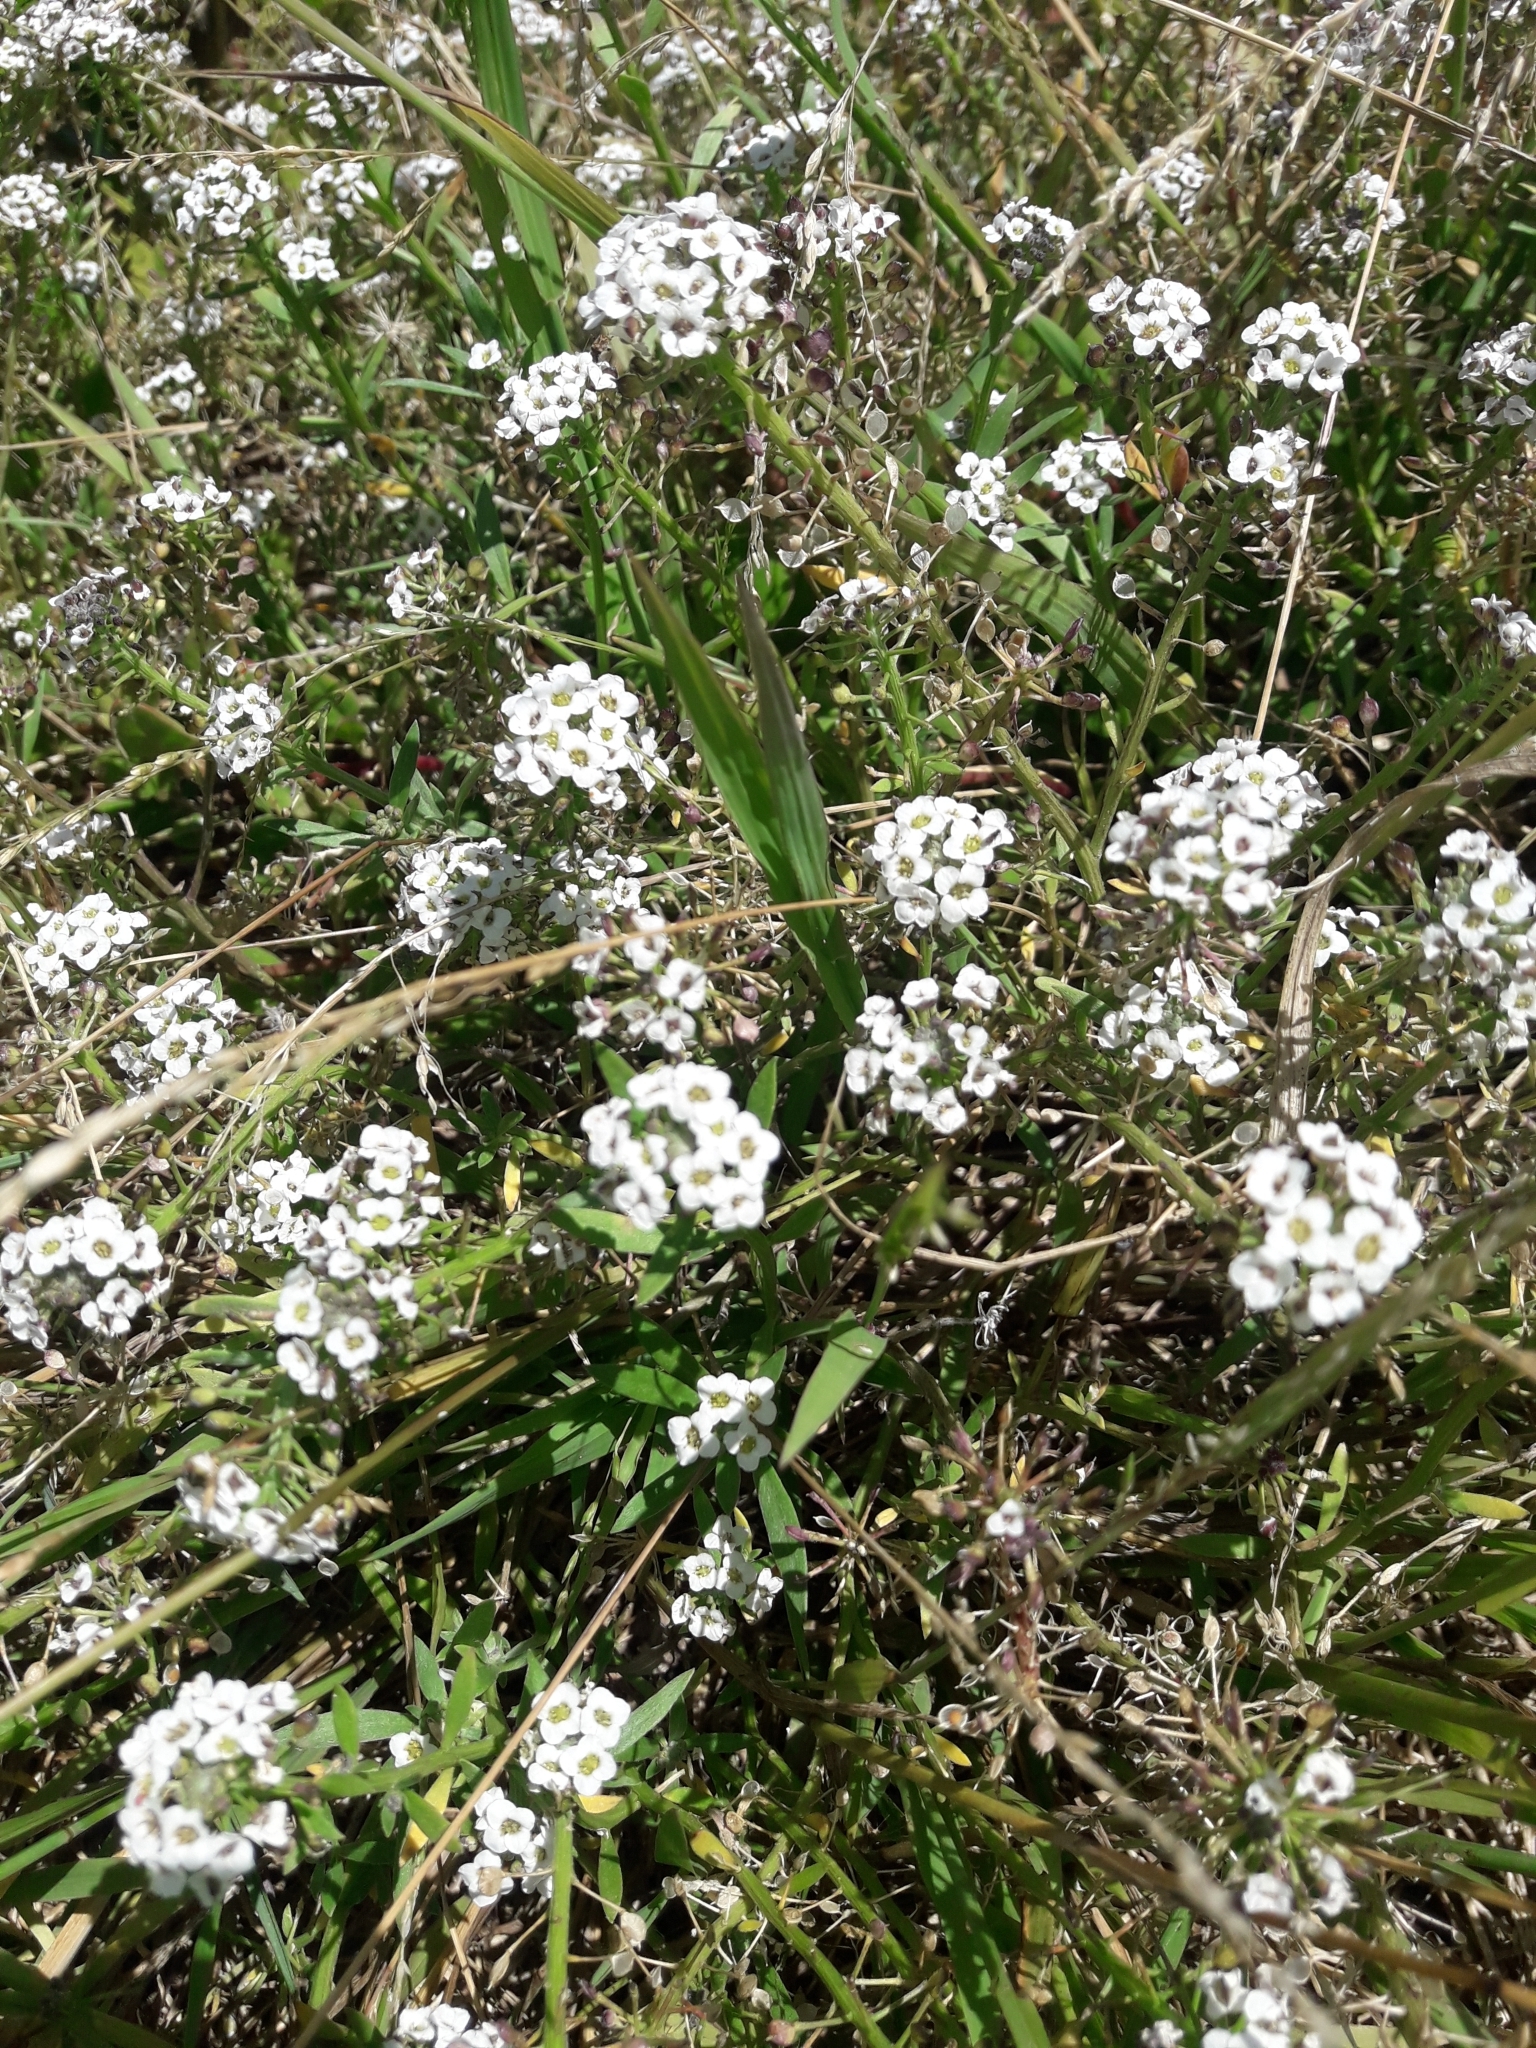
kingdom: Plantae
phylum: Tracheophyta
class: Magnoliopsida
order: Brassicales
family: Brassicaceae
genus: Lobularia
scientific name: Lobularia maritima
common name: Sweet alison
